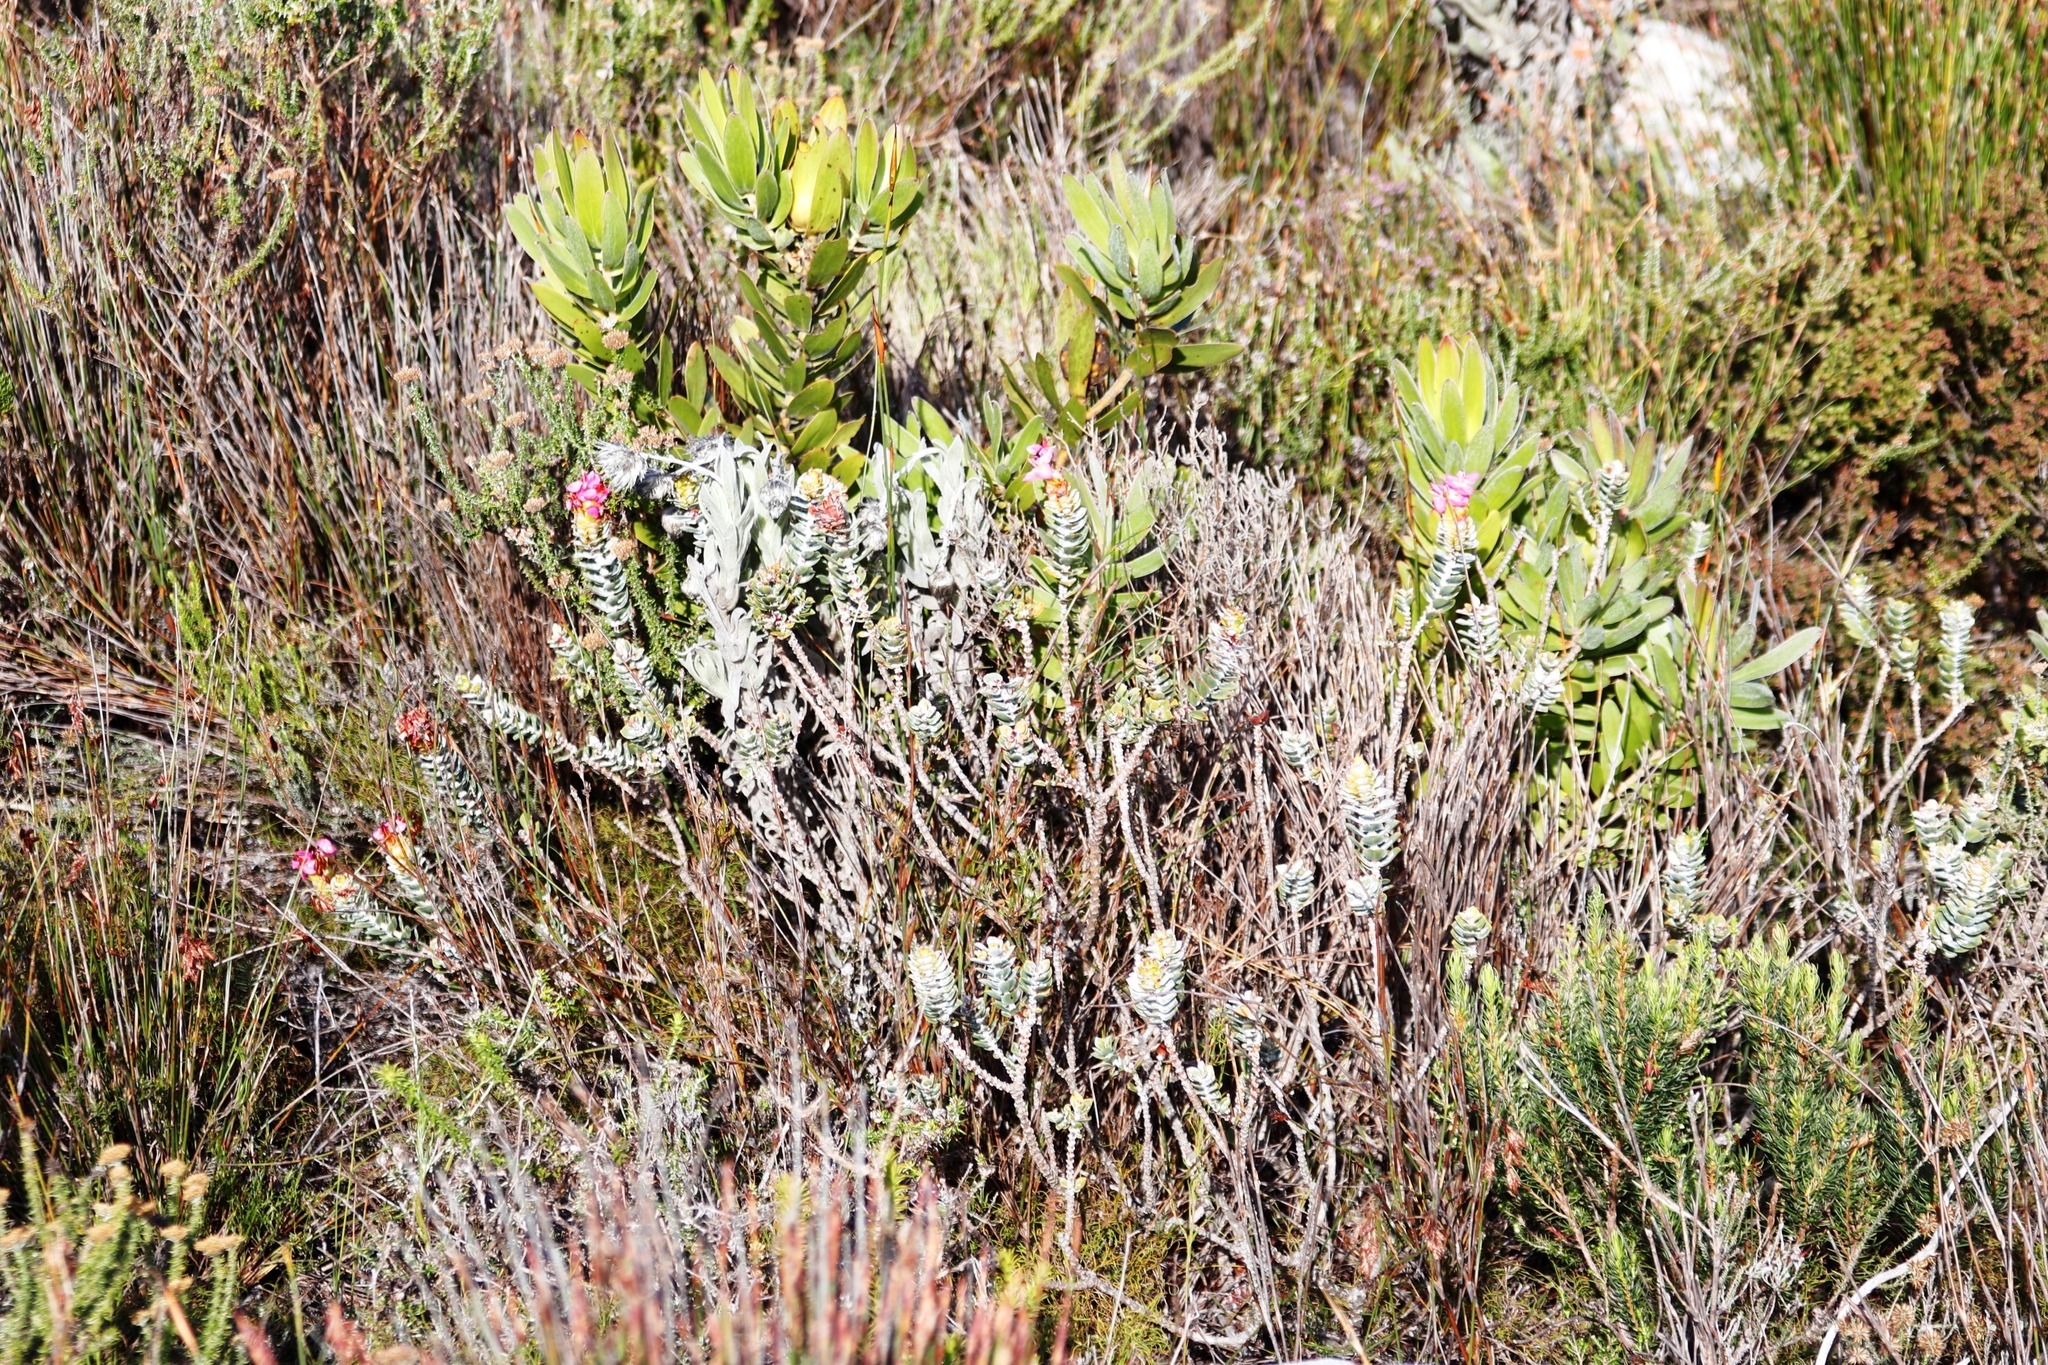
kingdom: Plantae
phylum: Tracheophyta
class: Magnoliopsida
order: Proteales
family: Proteaceae
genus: Leucadendron
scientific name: Leucadendron laureolum
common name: Golden sunshinebush
